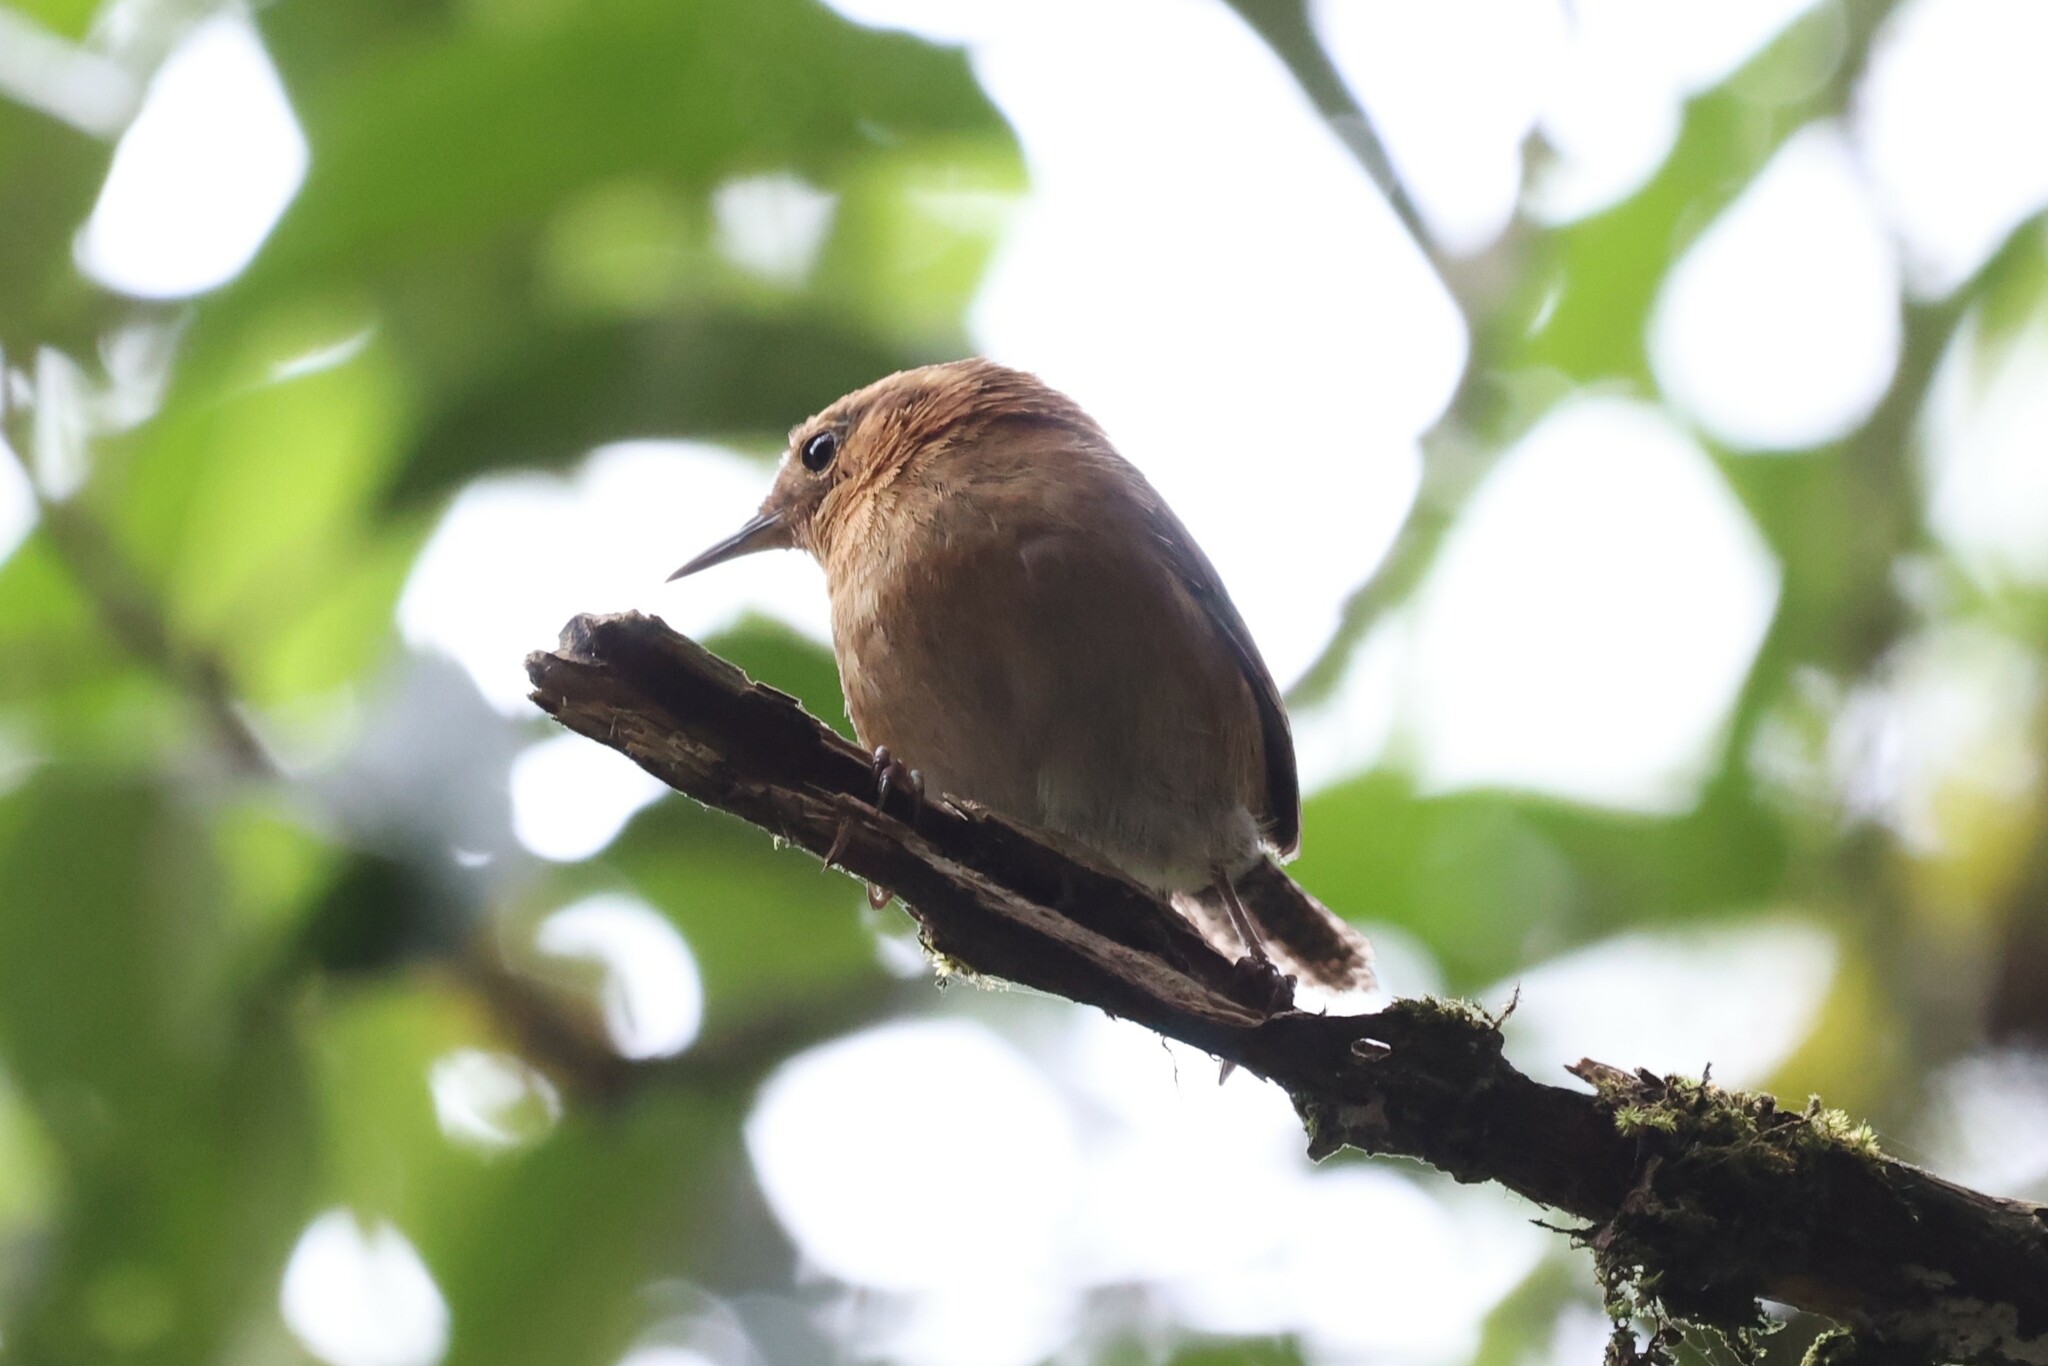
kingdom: Animalia
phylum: Chordata
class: Aves
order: Passeriformes
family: Troglodytidae
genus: Troglodytes
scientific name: Troglodytes solstitialis
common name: Mountain wren
